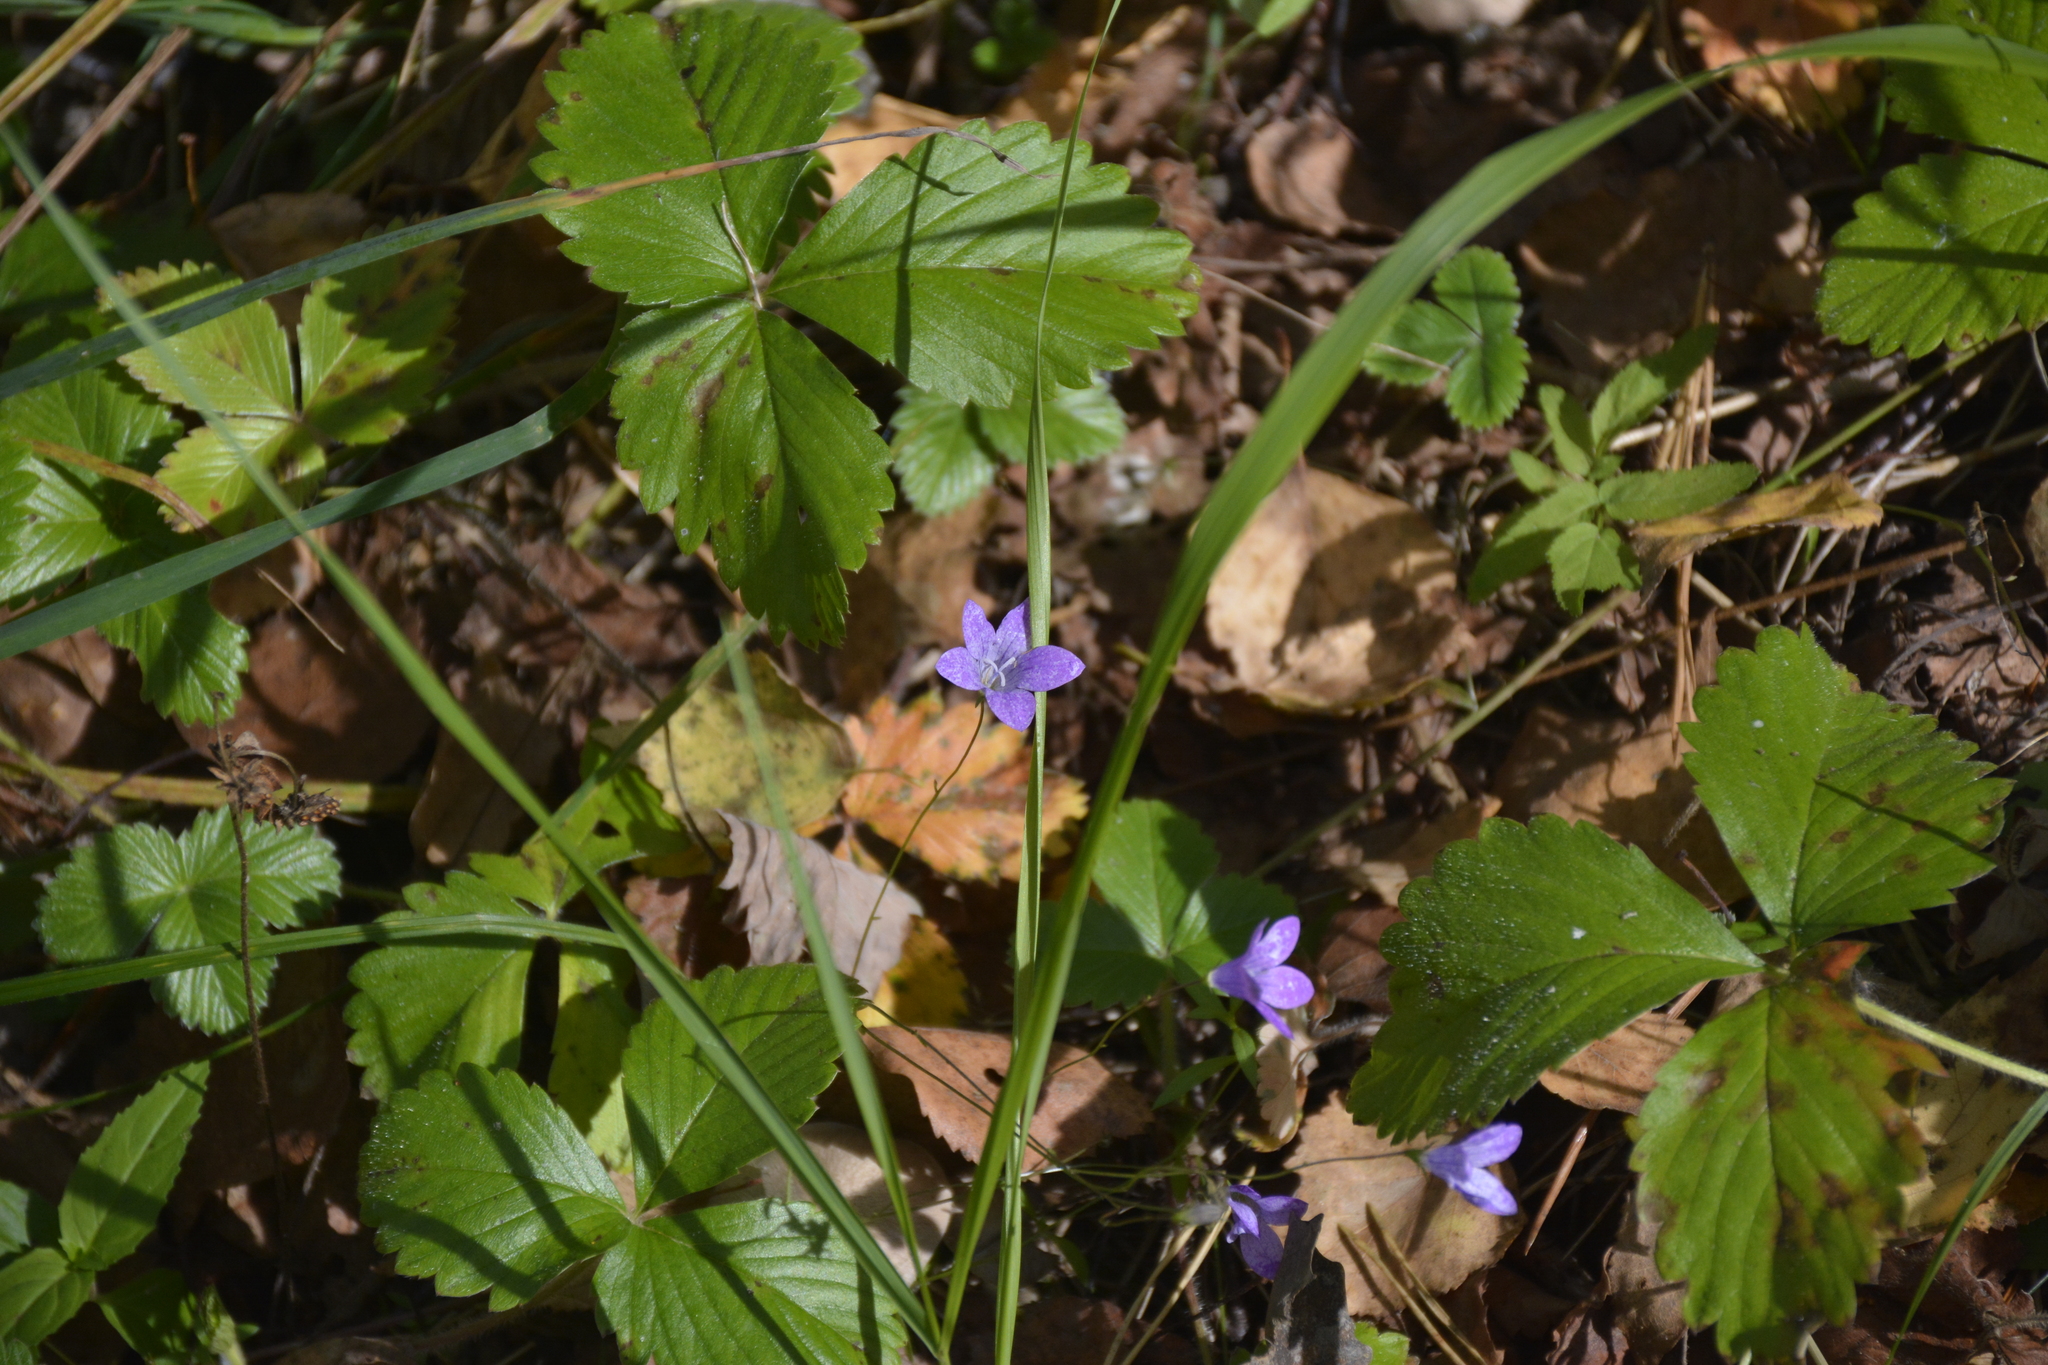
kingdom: Plantae
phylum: Tracheophyta
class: Magnoliopsida
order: Asterales
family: Campanulaceae
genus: Campanula
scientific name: Campanula patula
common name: Spreading bellflower
